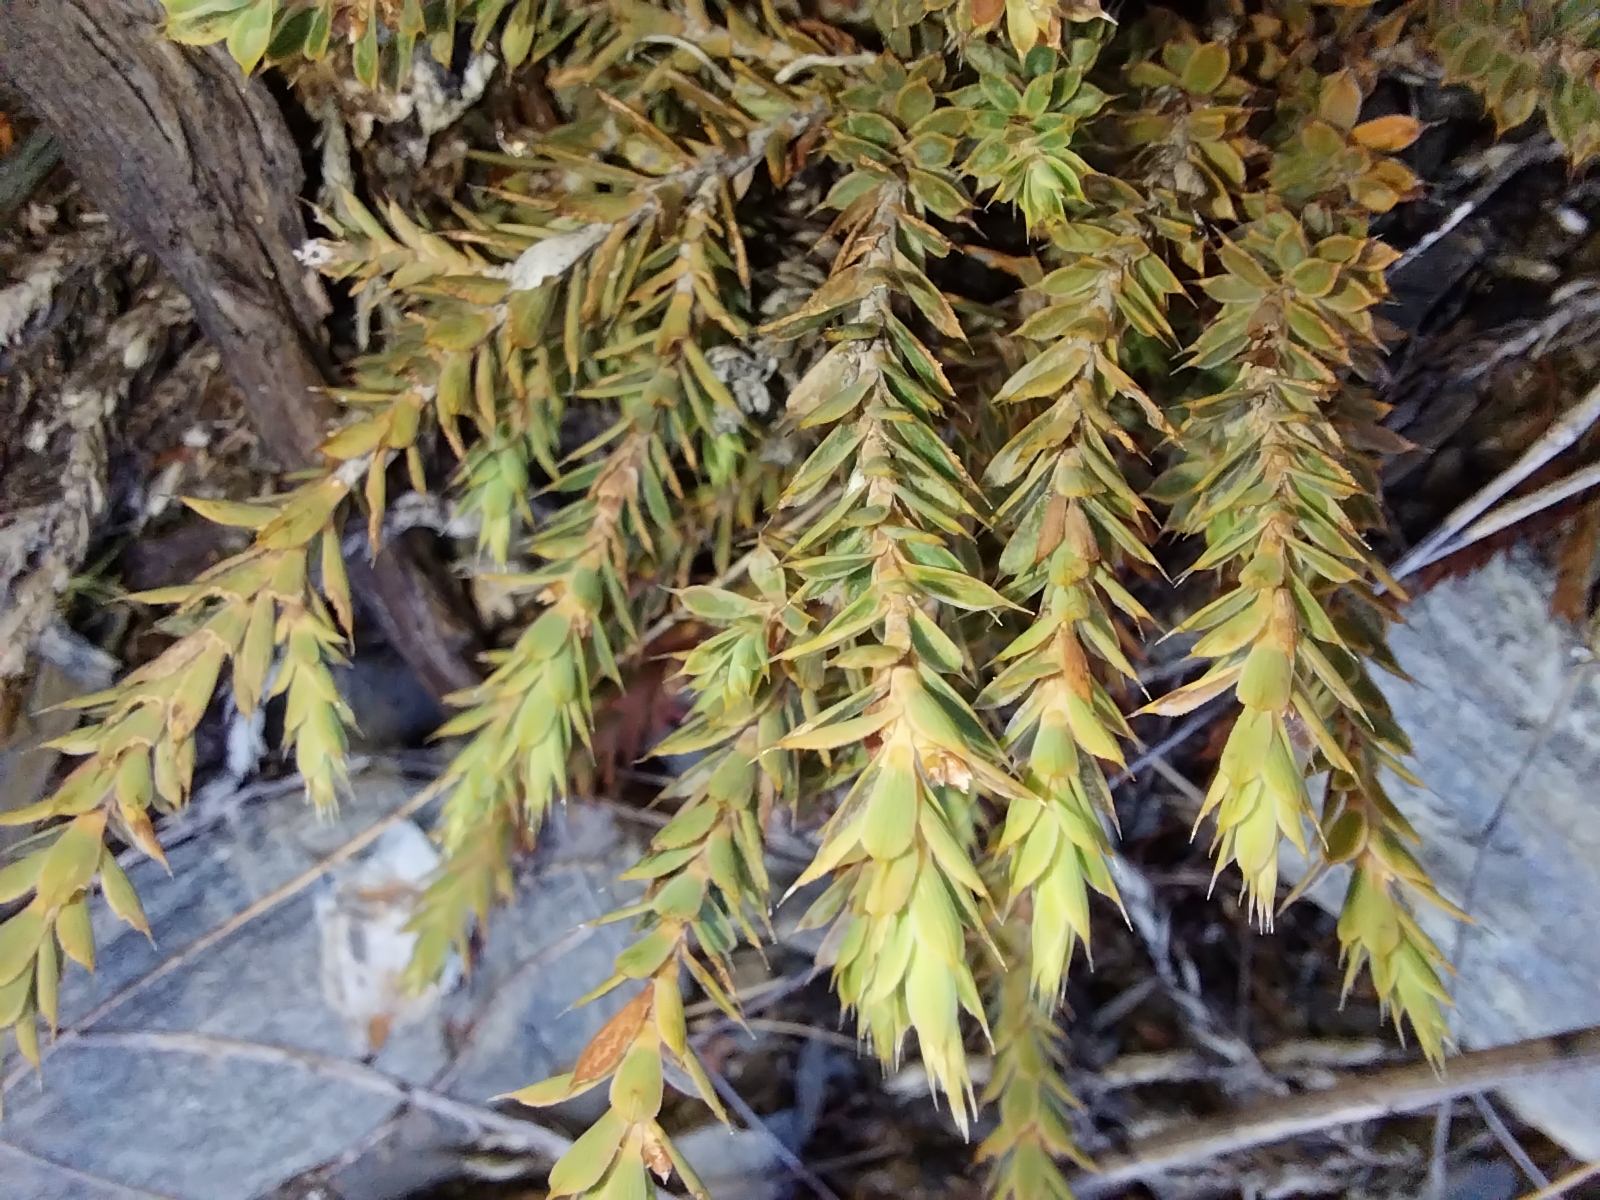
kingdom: Plantae
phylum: Tracheophyta
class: Magnoliopsida
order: Ericales
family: Ericaceae
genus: Styphelia
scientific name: Styphelia nesophila
